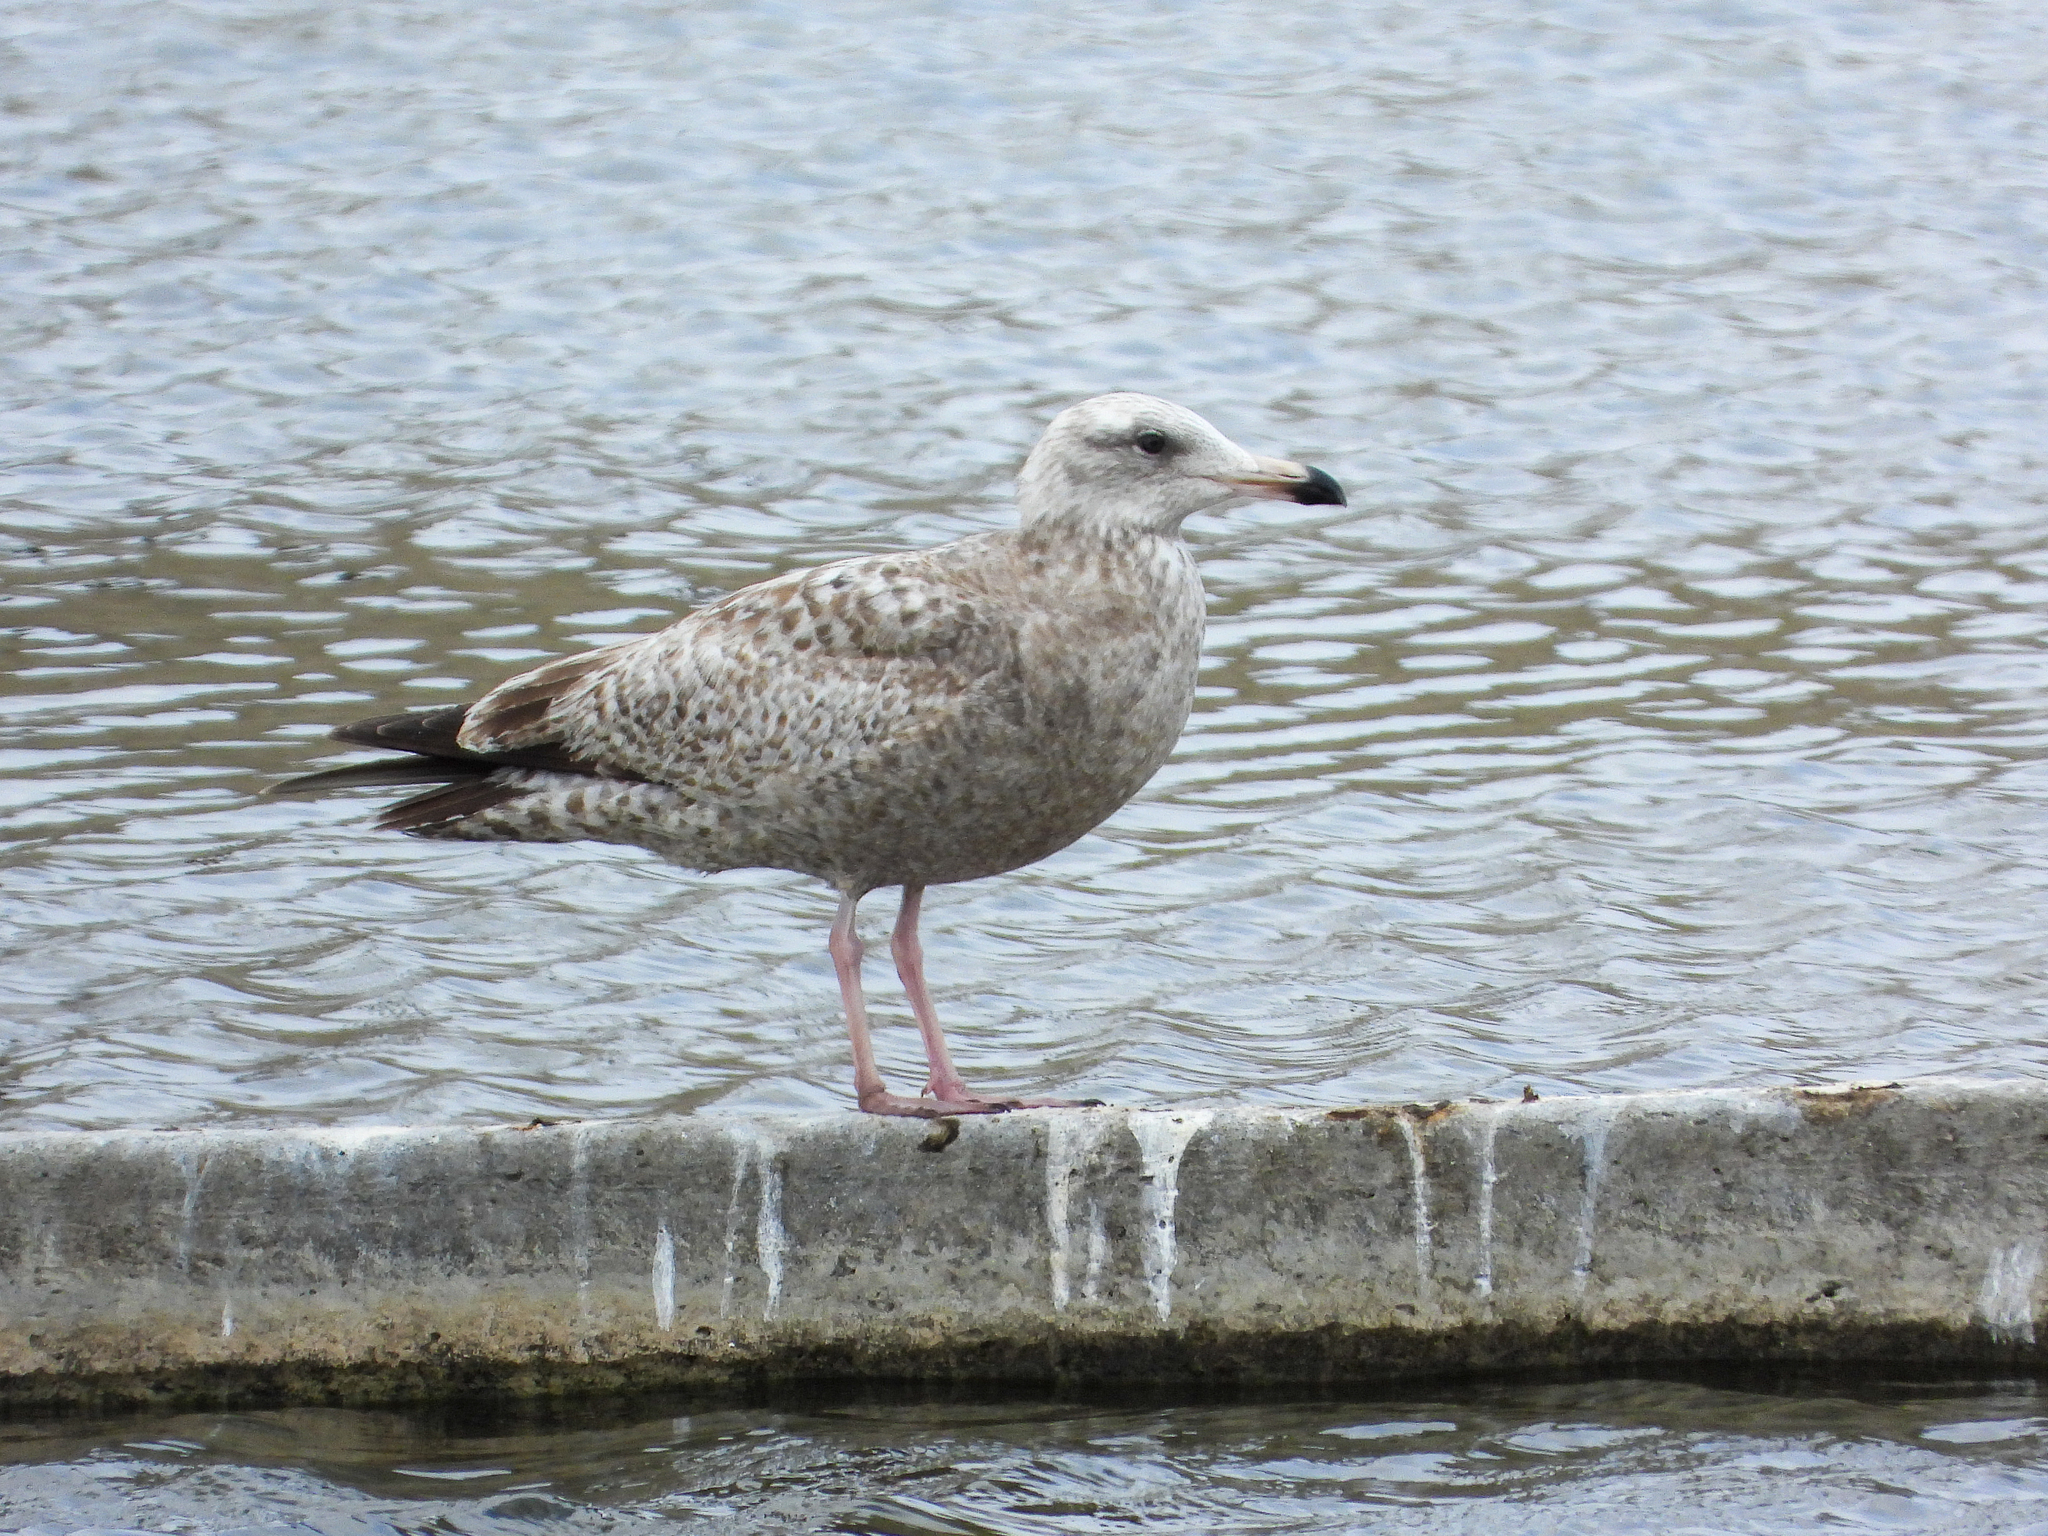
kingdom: Animalia
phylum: Chordata
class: Aves
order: Charadriiformes
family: Laridae
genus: Larus
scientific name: Larus argentatus
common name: Herring gull
